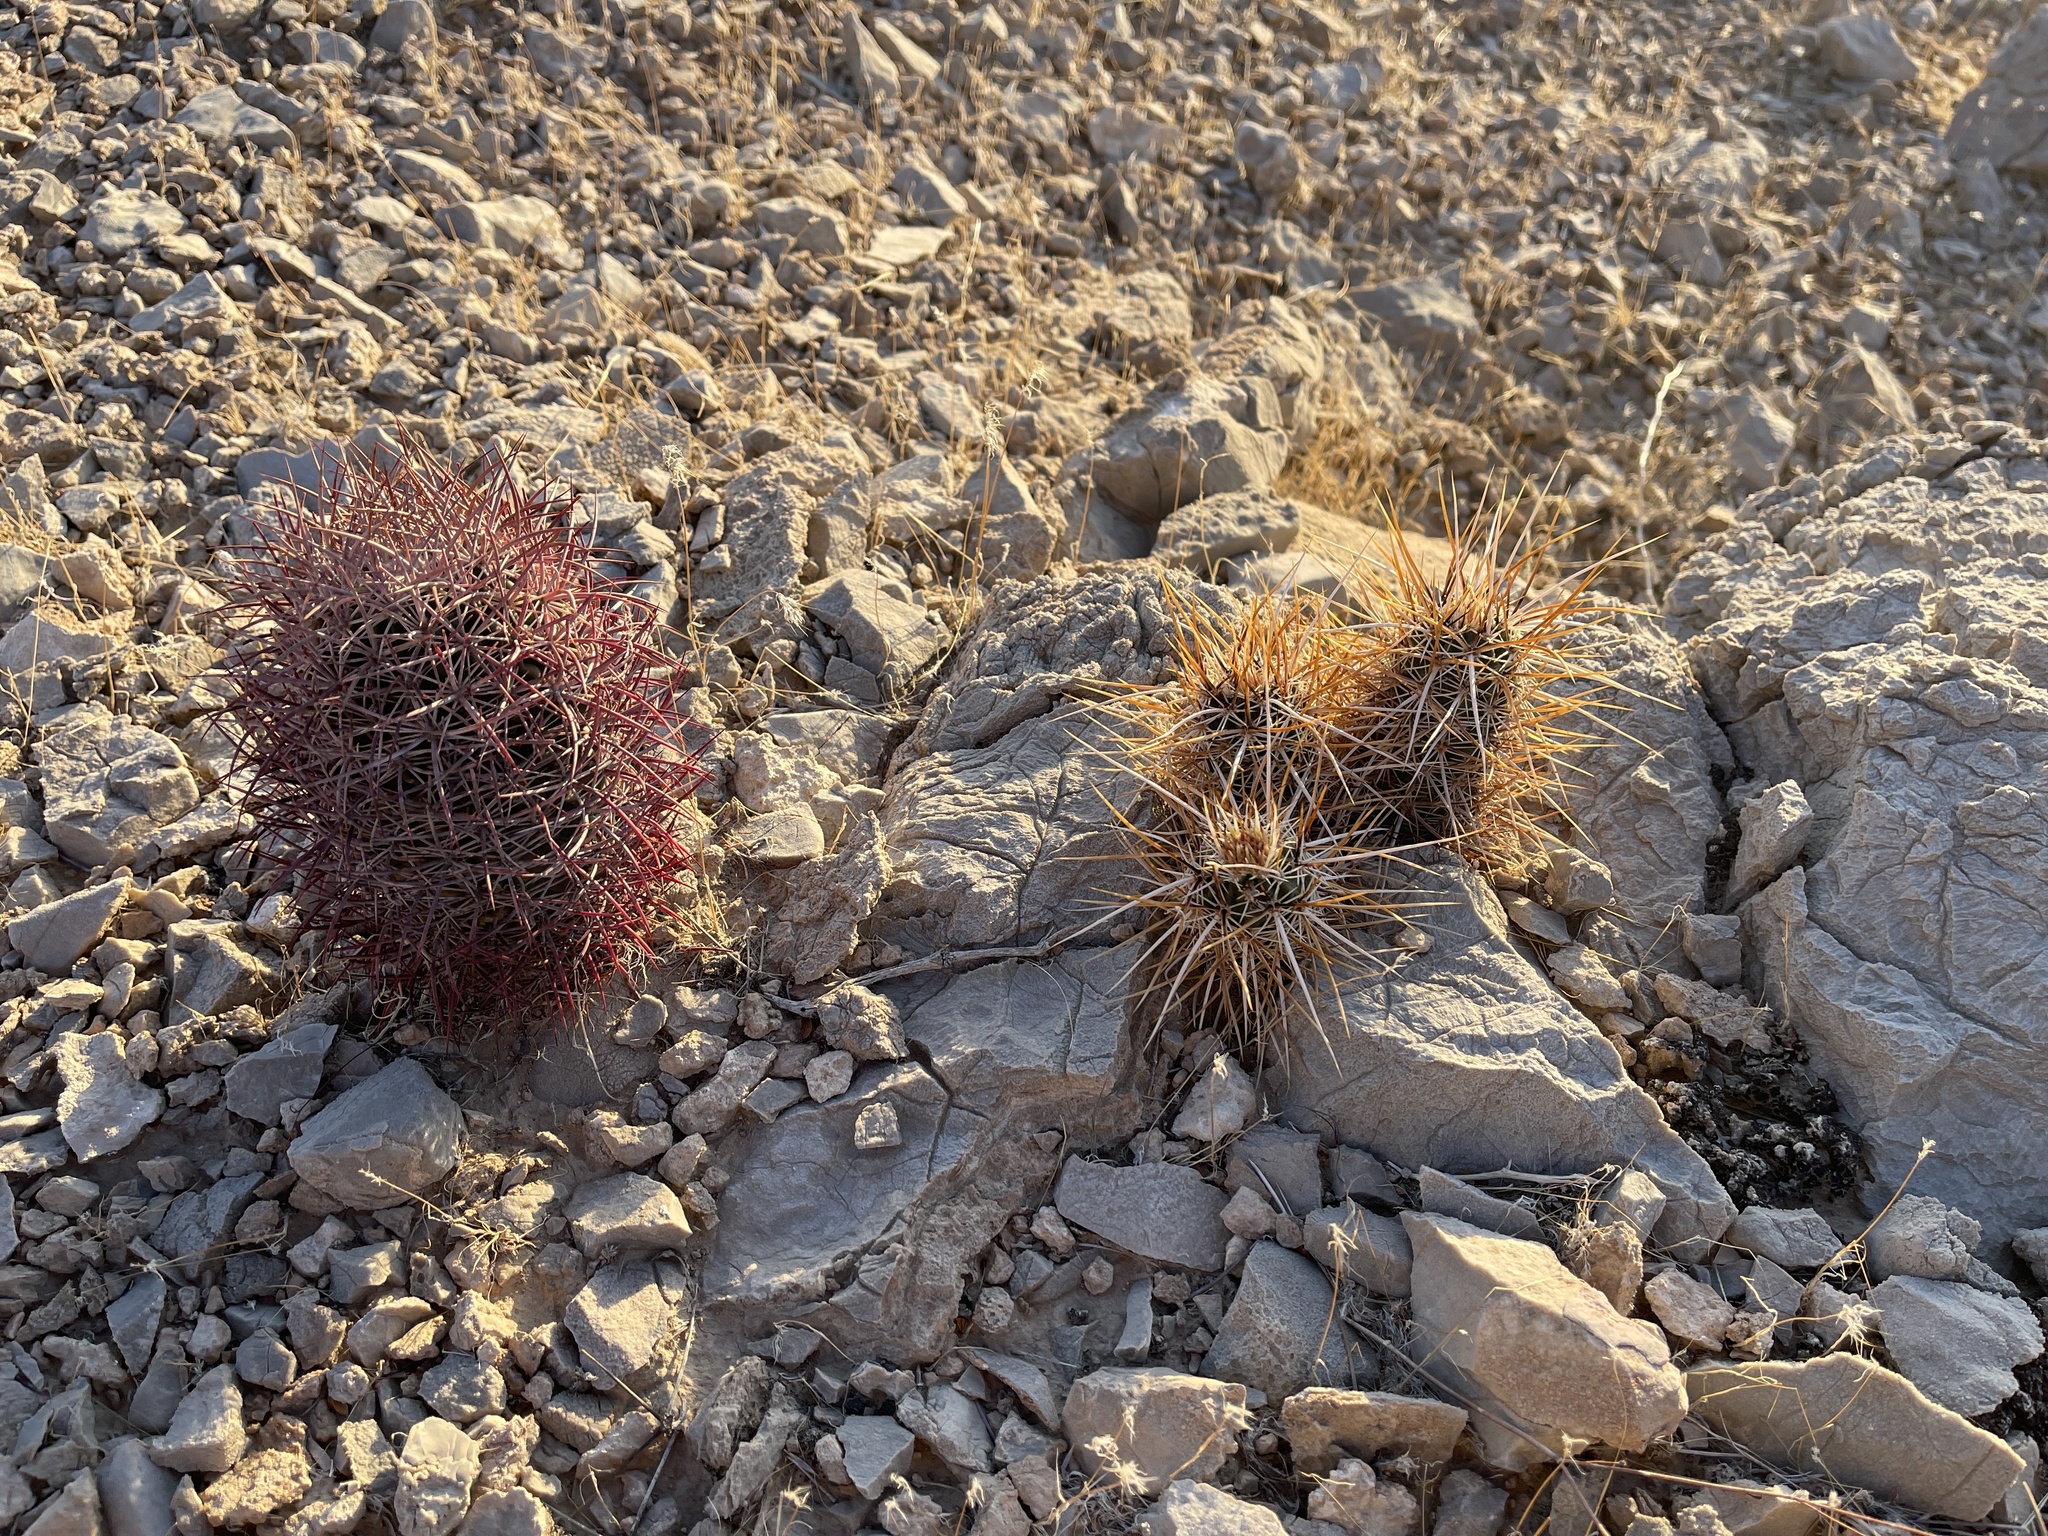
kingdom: Plantae
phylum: Tracheophyta
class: Magnoliopsida
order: Caryophyllales
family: Cactaceae
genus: Sclerocactus
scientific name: Sclerocactus johnsonii
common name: Eight-spine fishhook cactus
